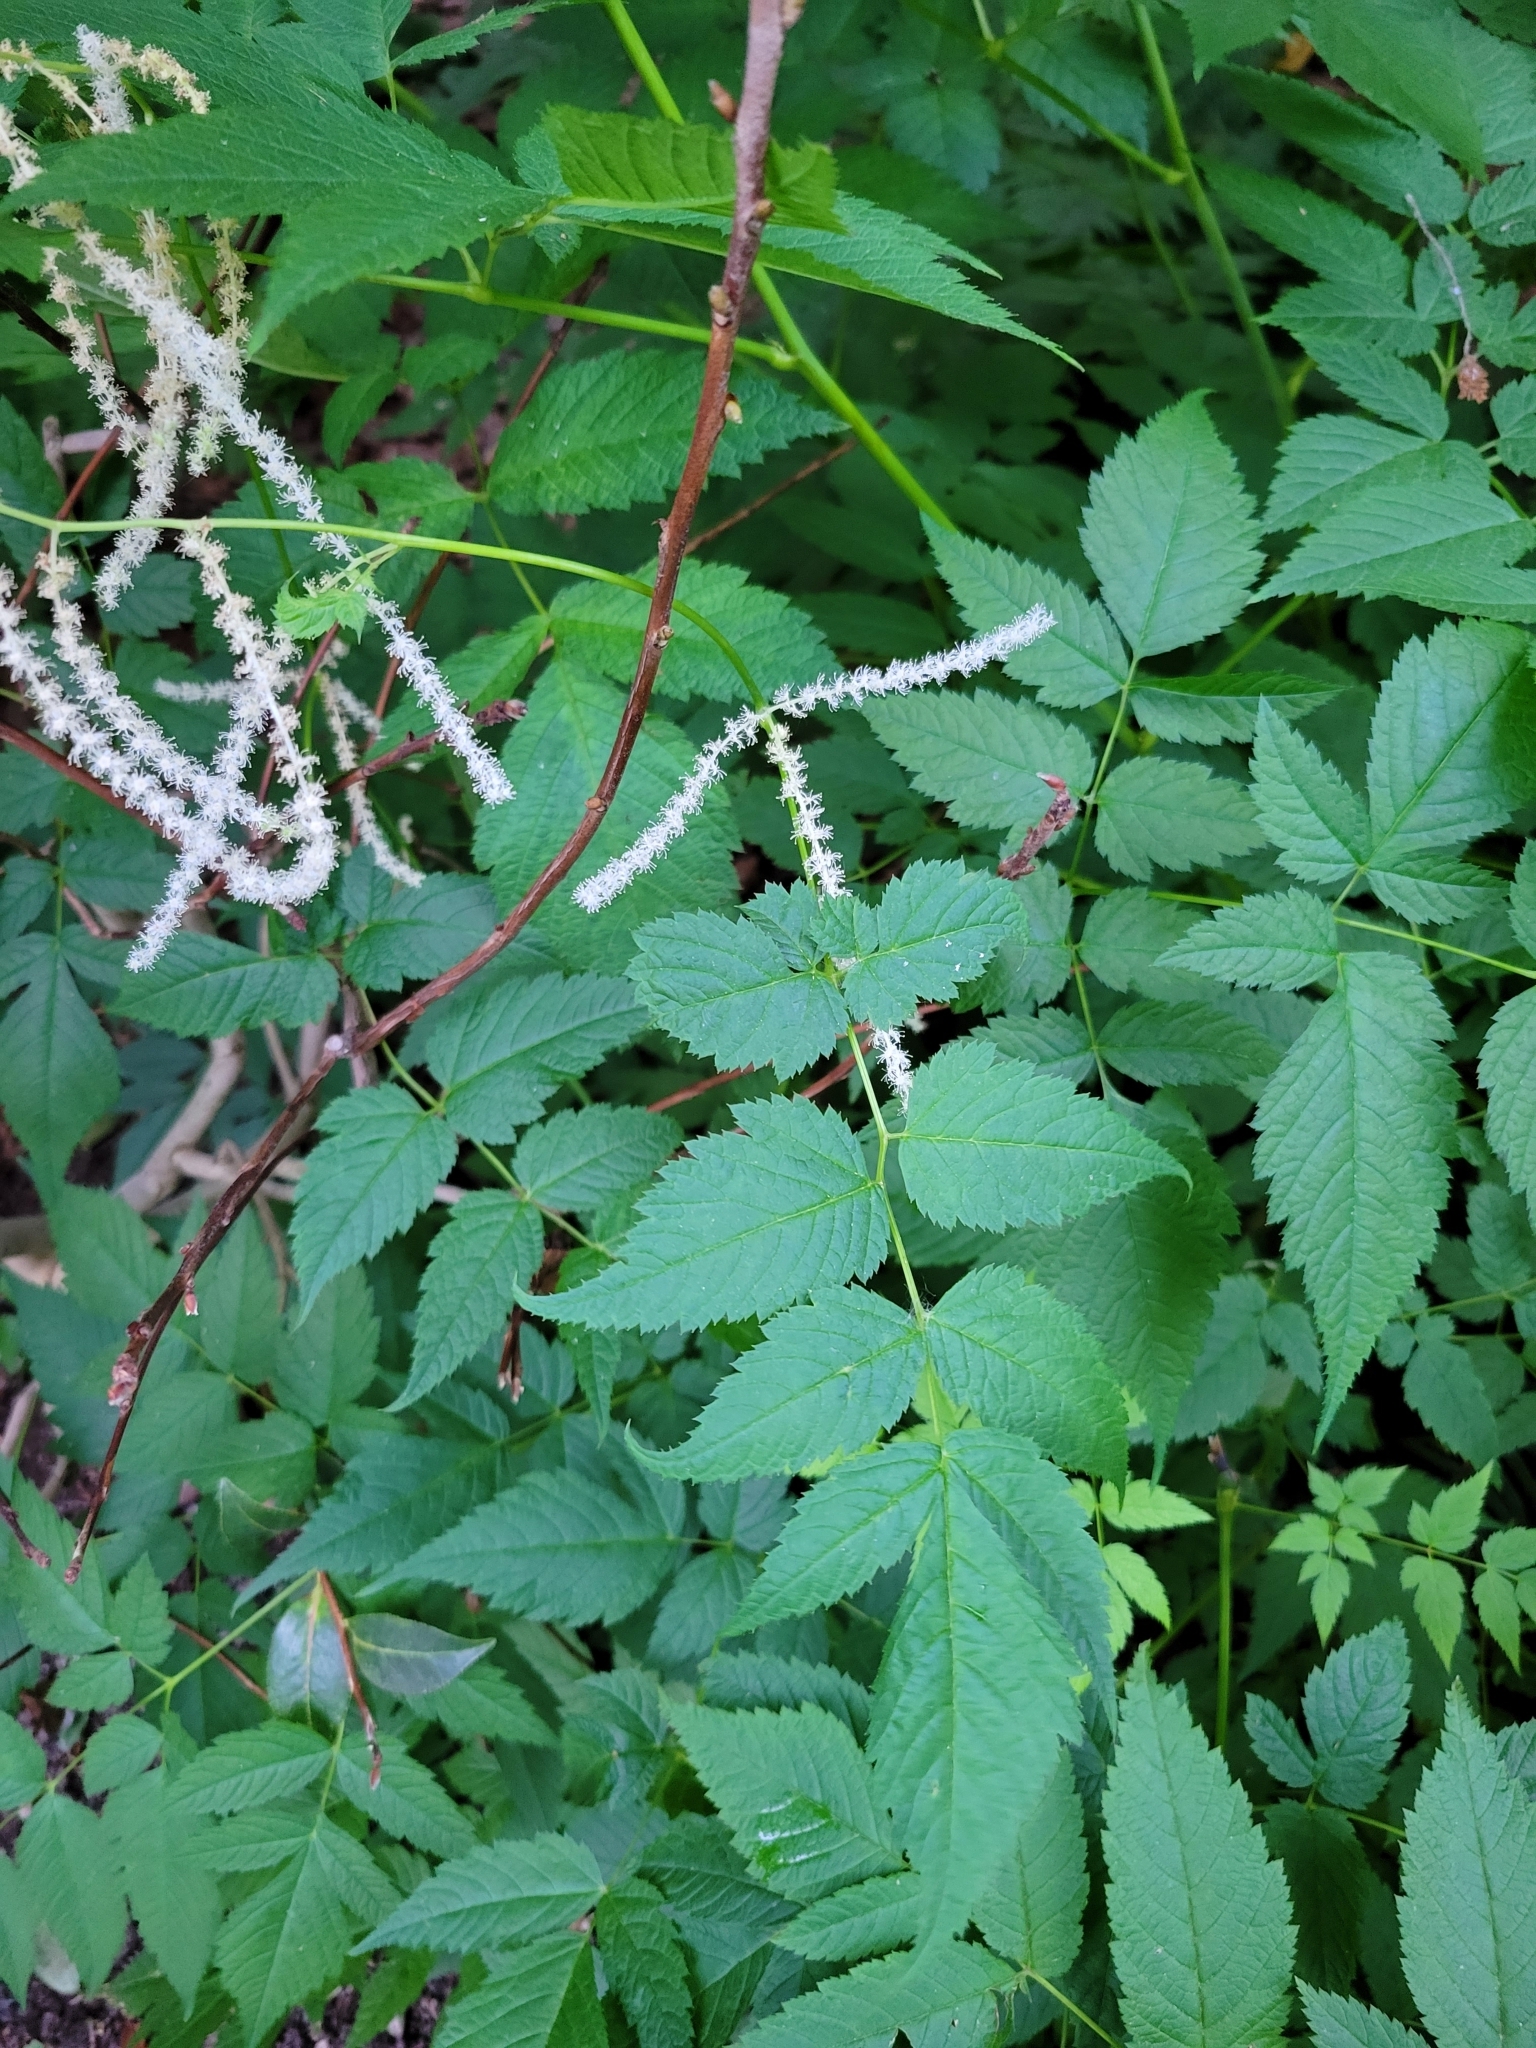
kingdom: Plantae
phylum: Tracheophyta
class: Magnoliopsida
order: Rosales
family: Rosaceae
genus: Aruncus
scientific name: Aruncus dioicus
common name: Buck's-beard
